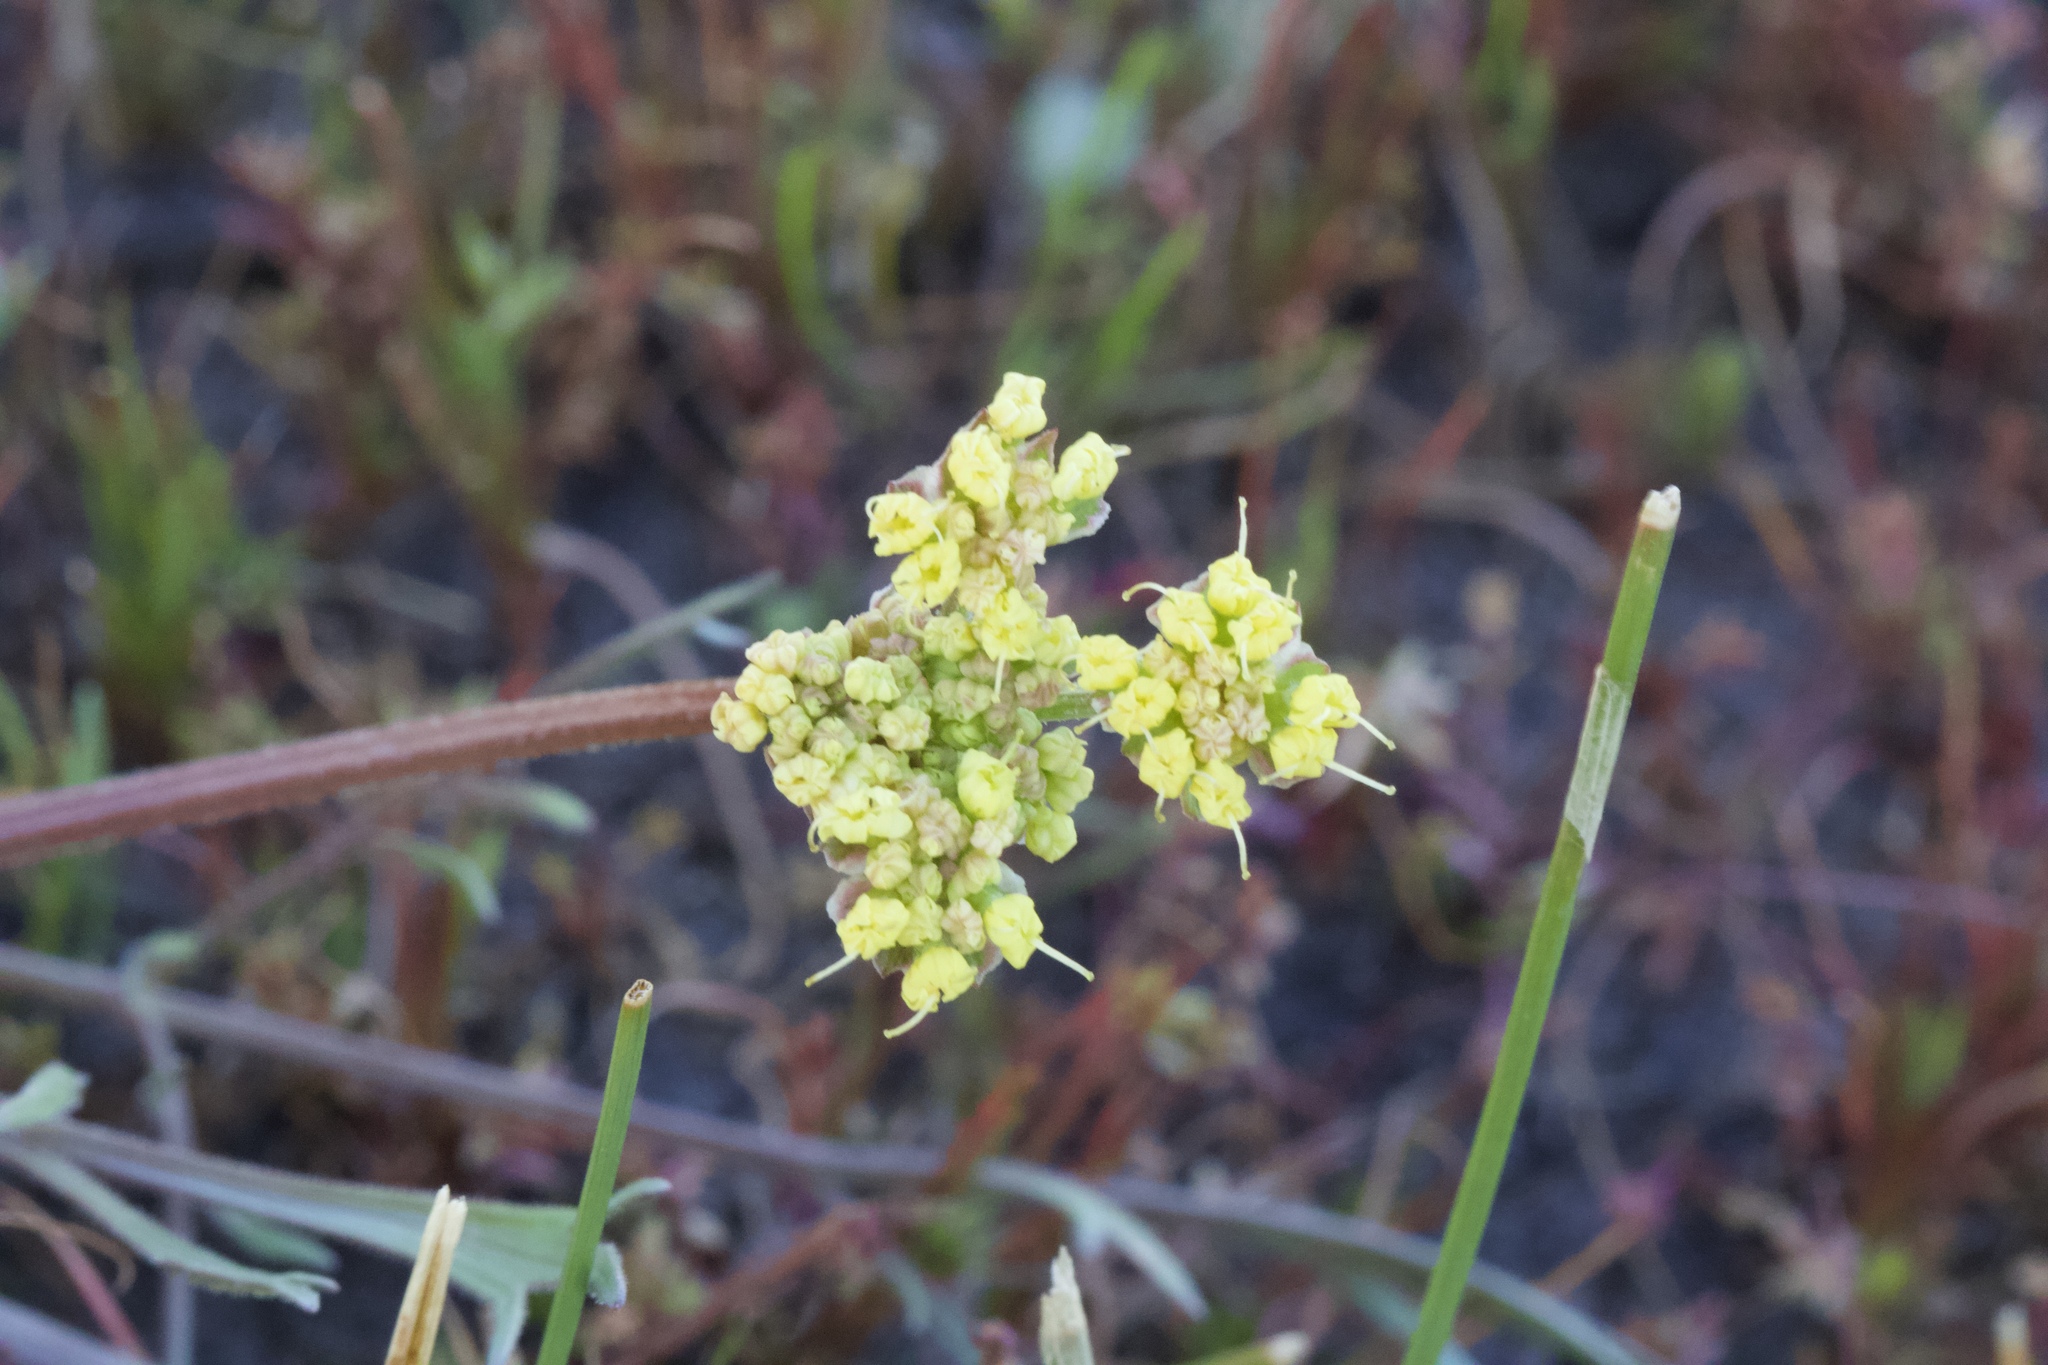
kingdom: Plantae
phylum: Tracheophyta
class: Magnoliopsida
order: Apiales
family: Apiaceae
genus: Lomatium
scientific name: Lomatium caruifolium
